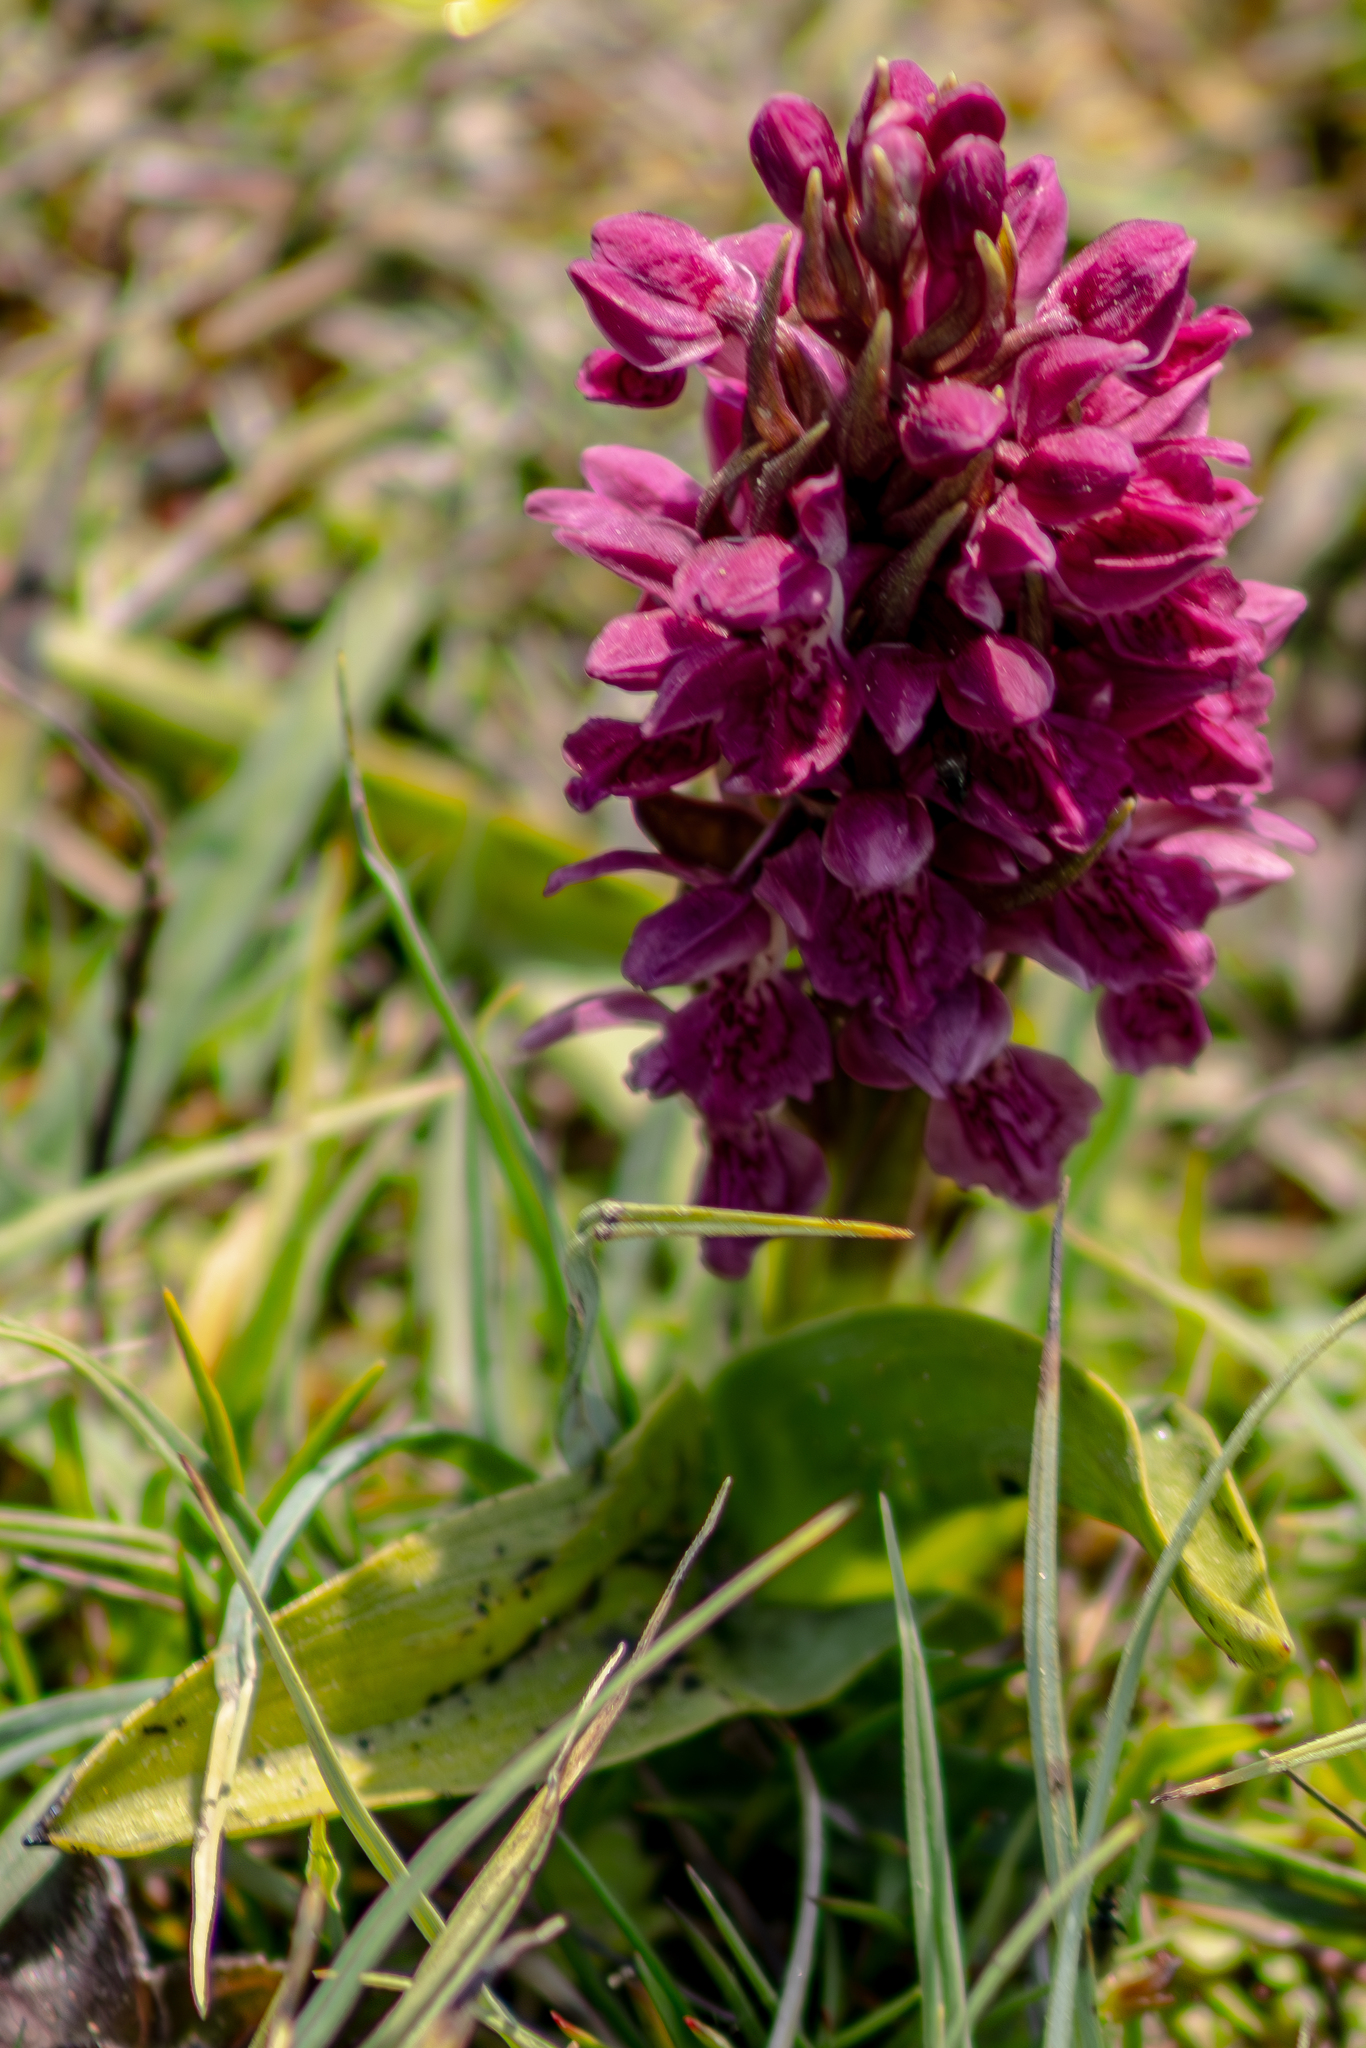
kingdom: Plantae
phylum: Tracheophyta
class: Liliopsida
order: Asparagales
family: Orchidaceae
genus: Dactylorhiza
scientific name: Dactylorhiza incarnata
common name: Early marsh-orchid
